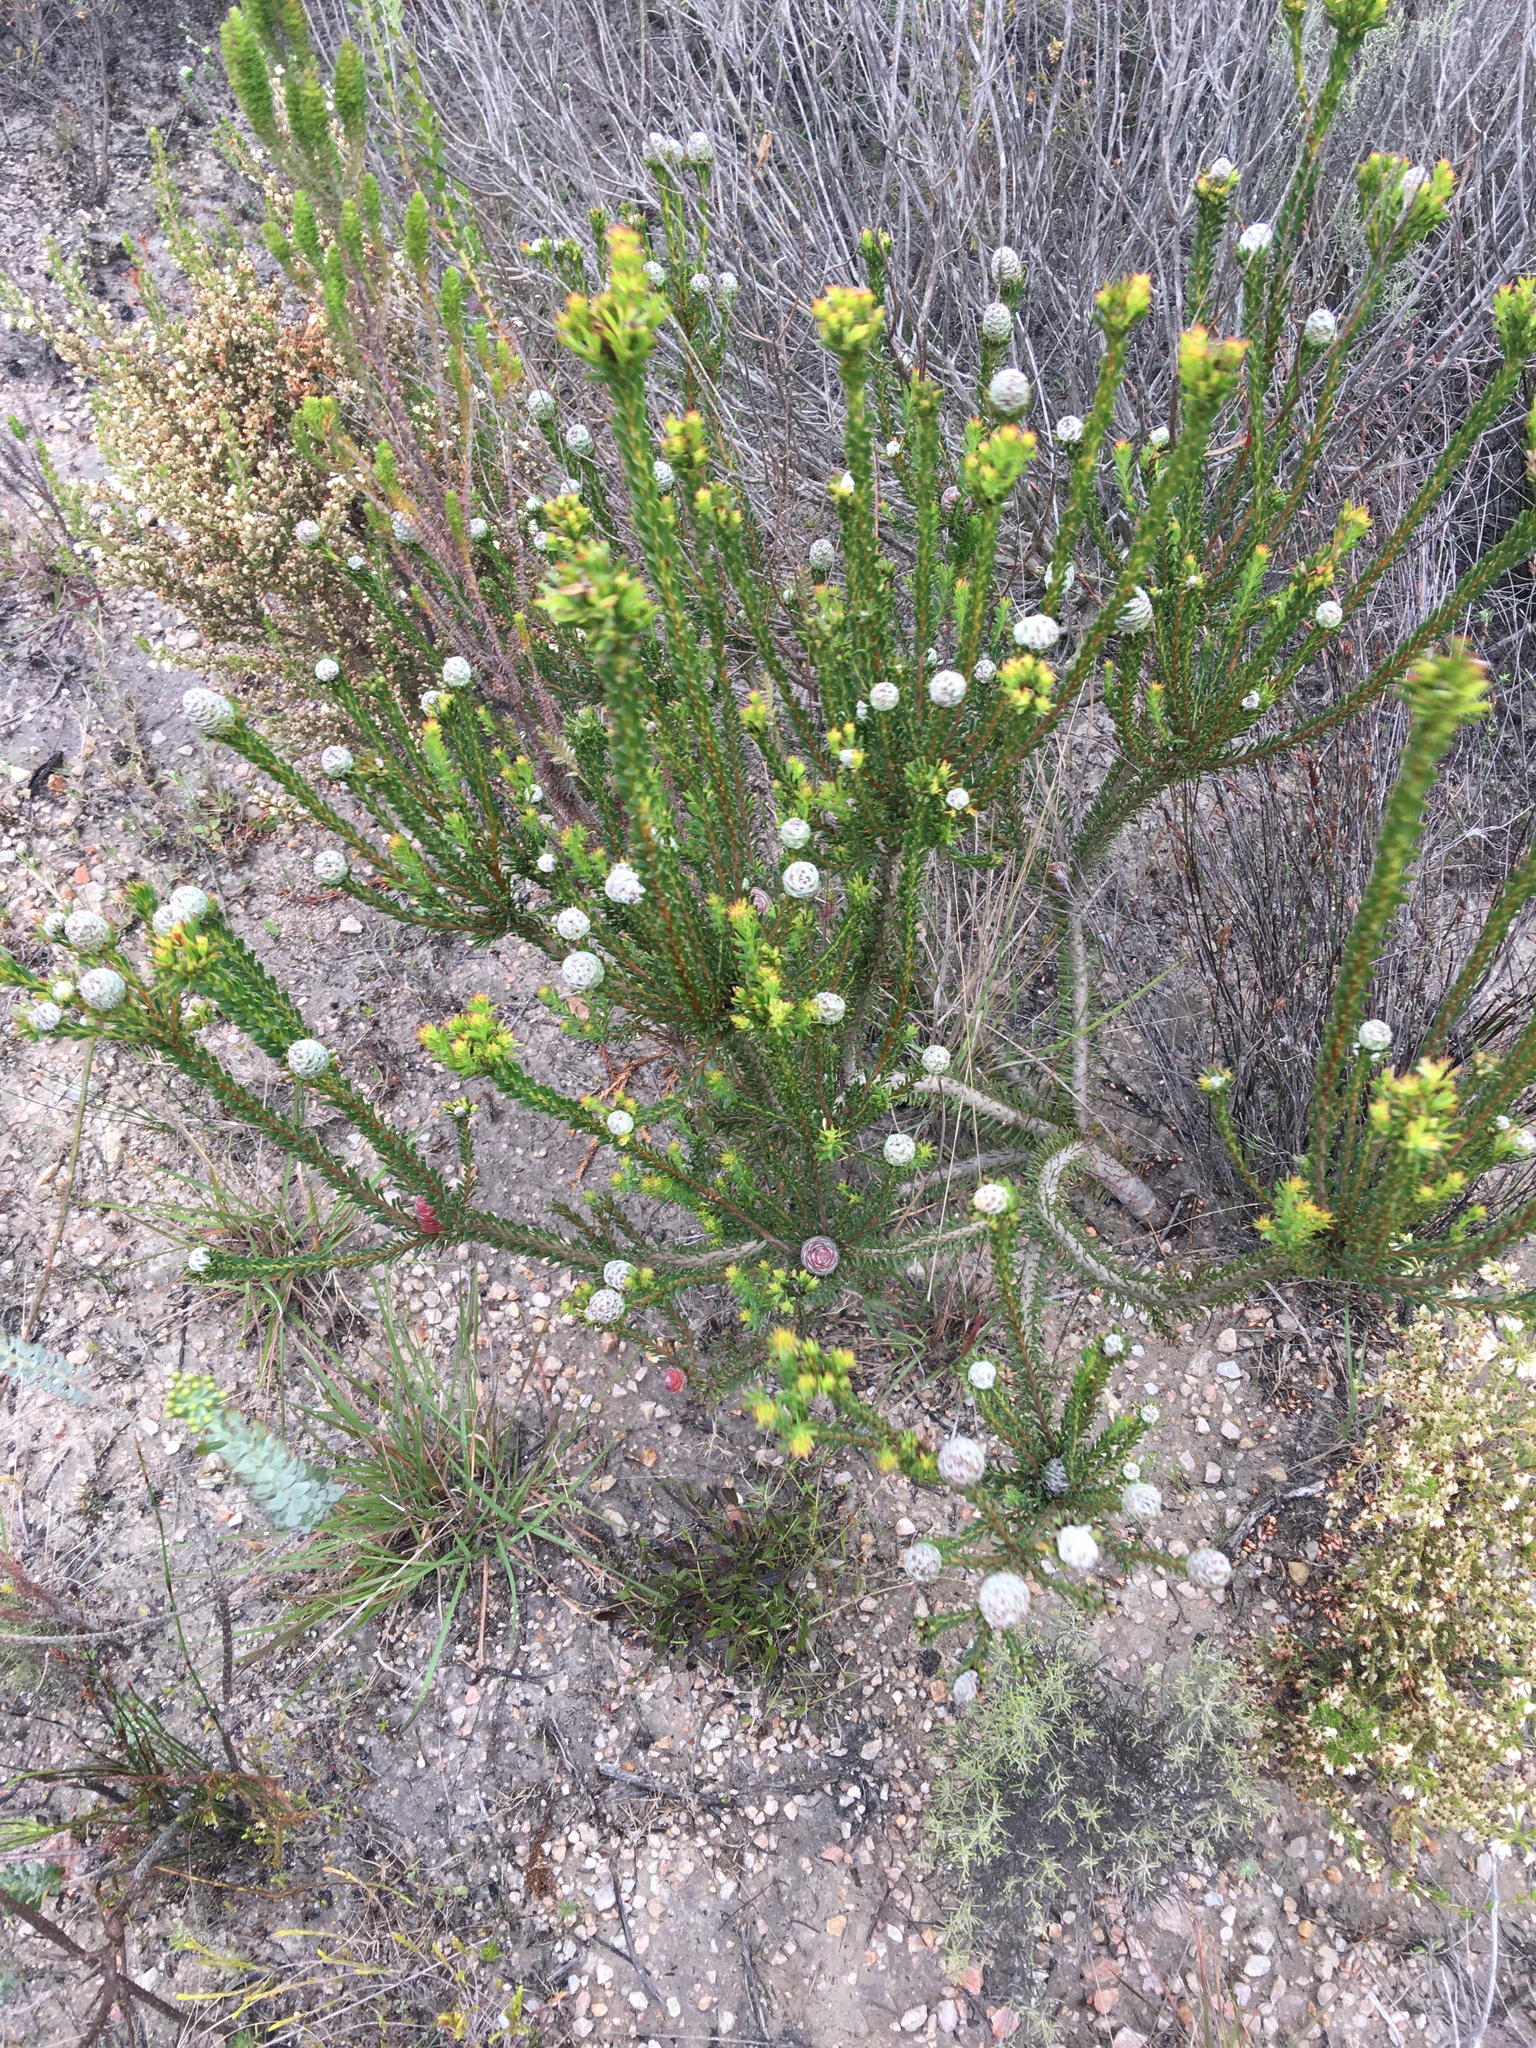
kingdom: Plantae
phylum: Tracheophyta
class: Magnoliopsida
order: Proteales
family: Proteaceae
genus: Leucadendron
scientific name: Leucadendron linifolium
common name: Line-leaf conebush
